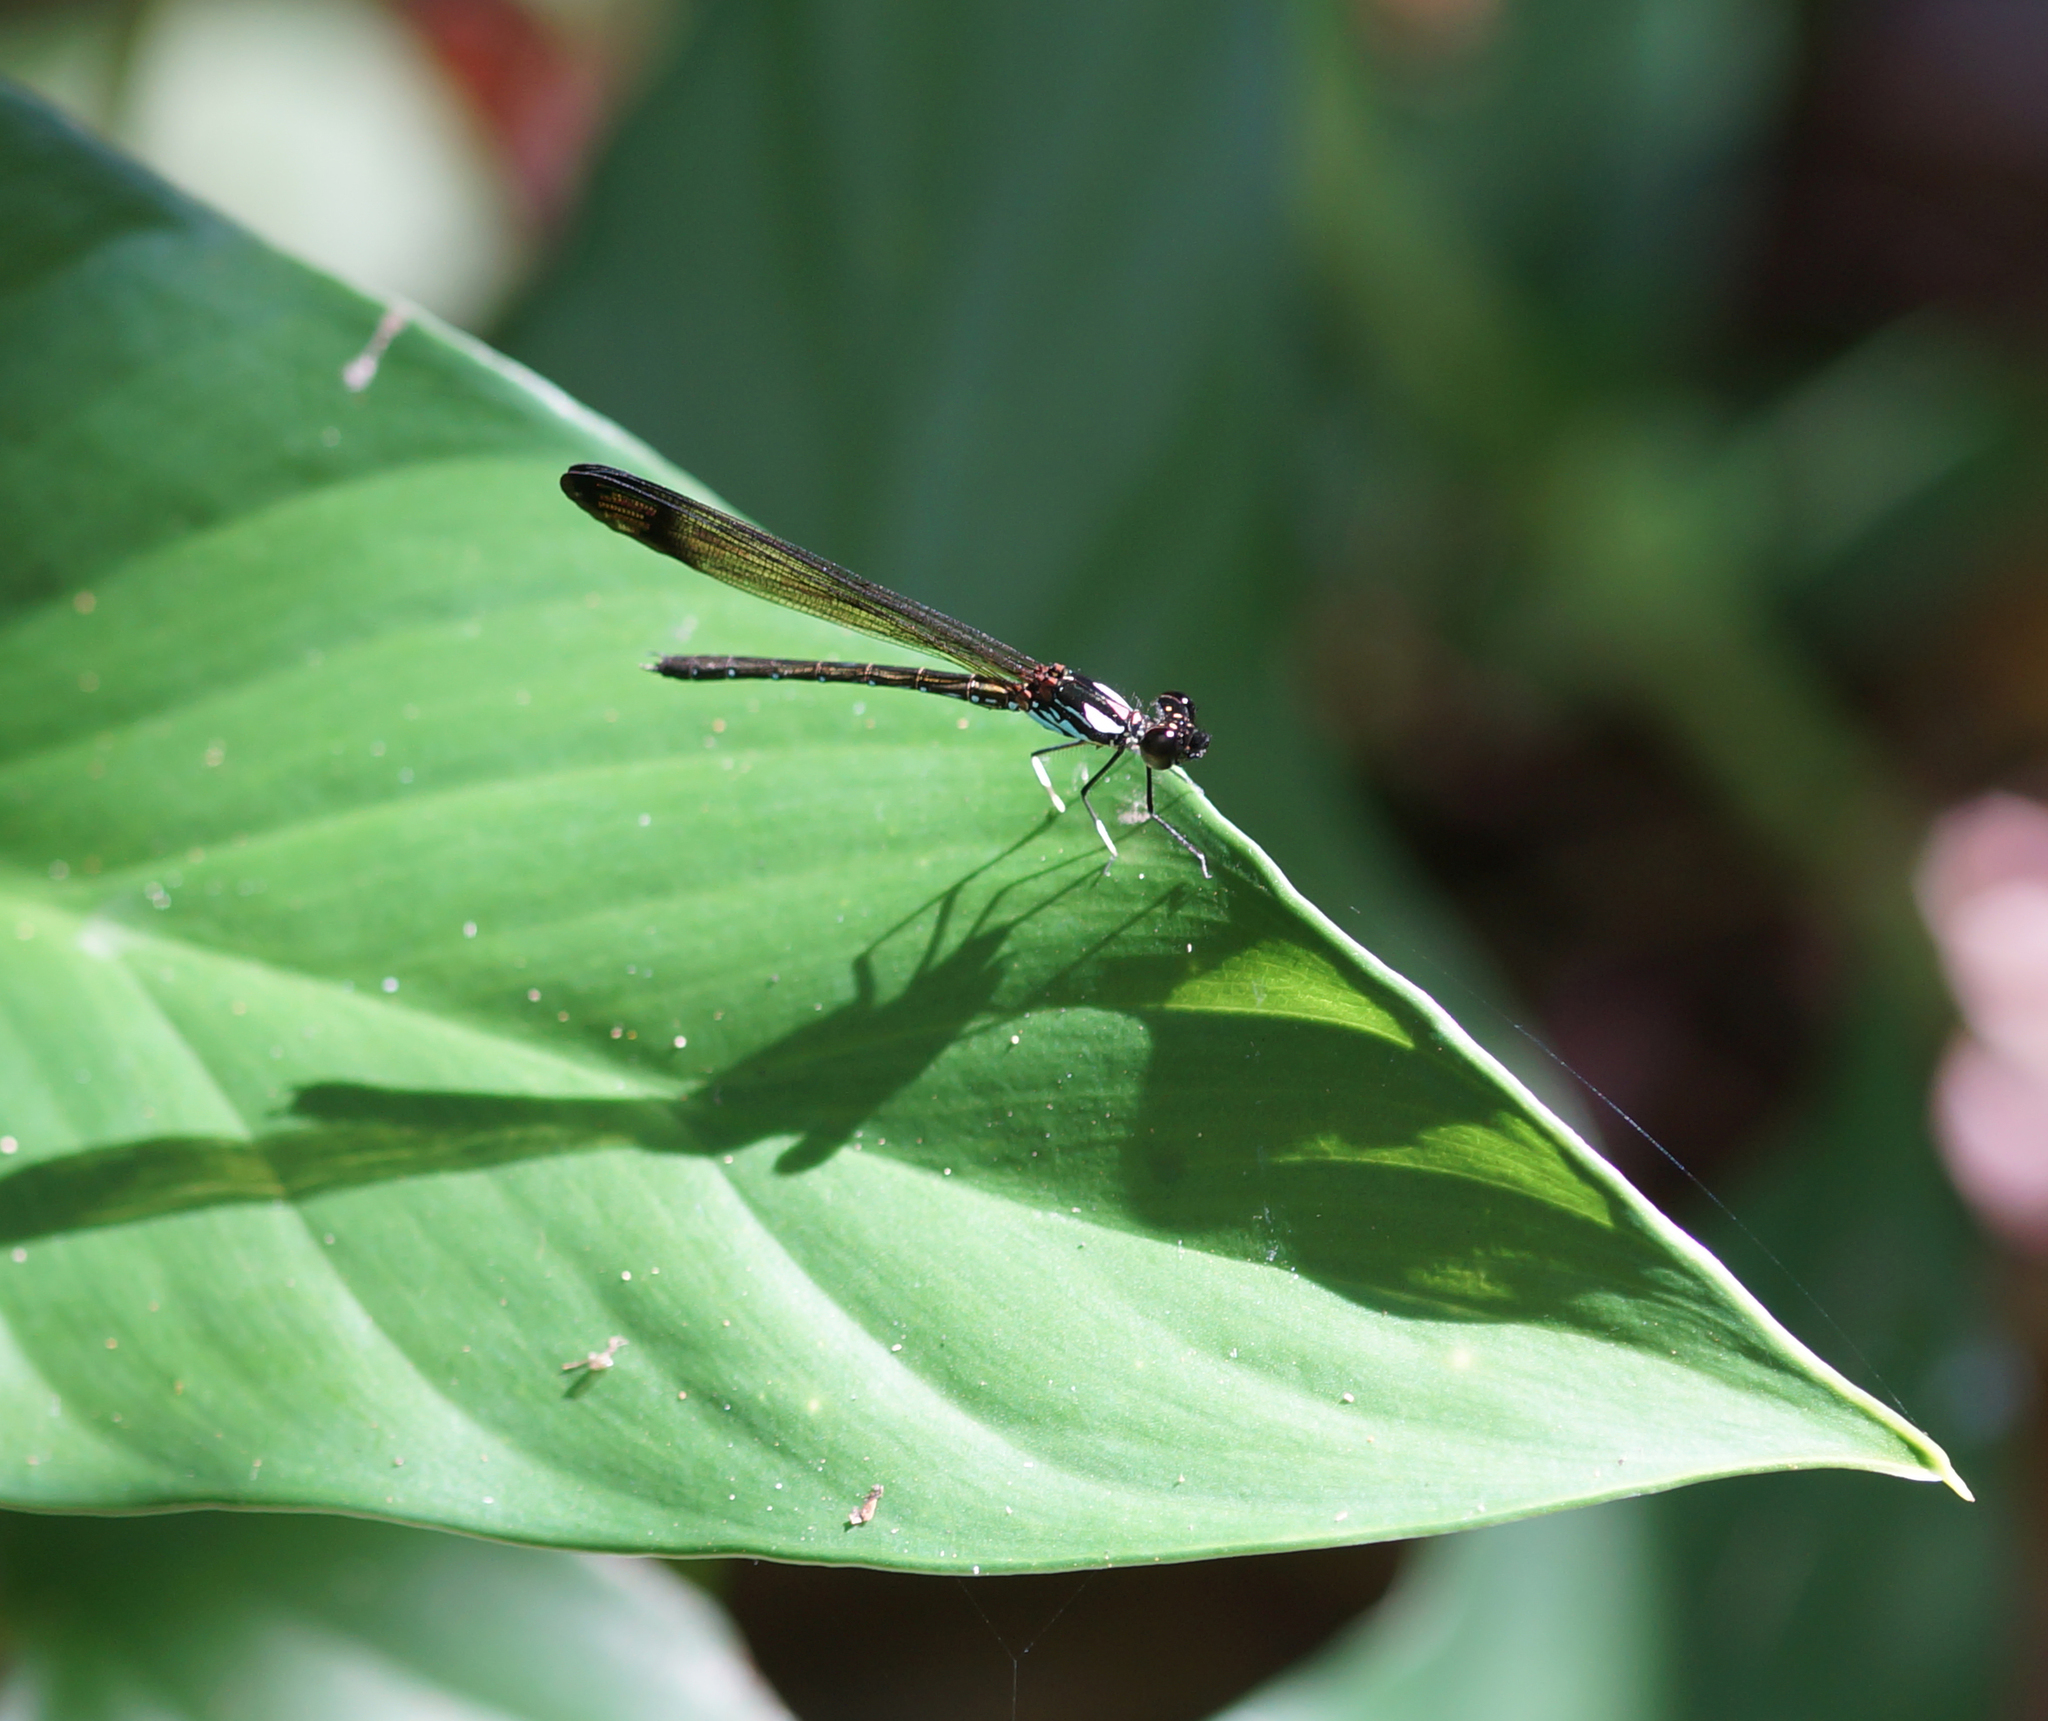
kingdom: Animalia
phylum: Arthropoda
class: Insecta
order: Odonata
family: Chlorocyphidae
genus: Heliocypha
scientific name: Heliocypha biforata
